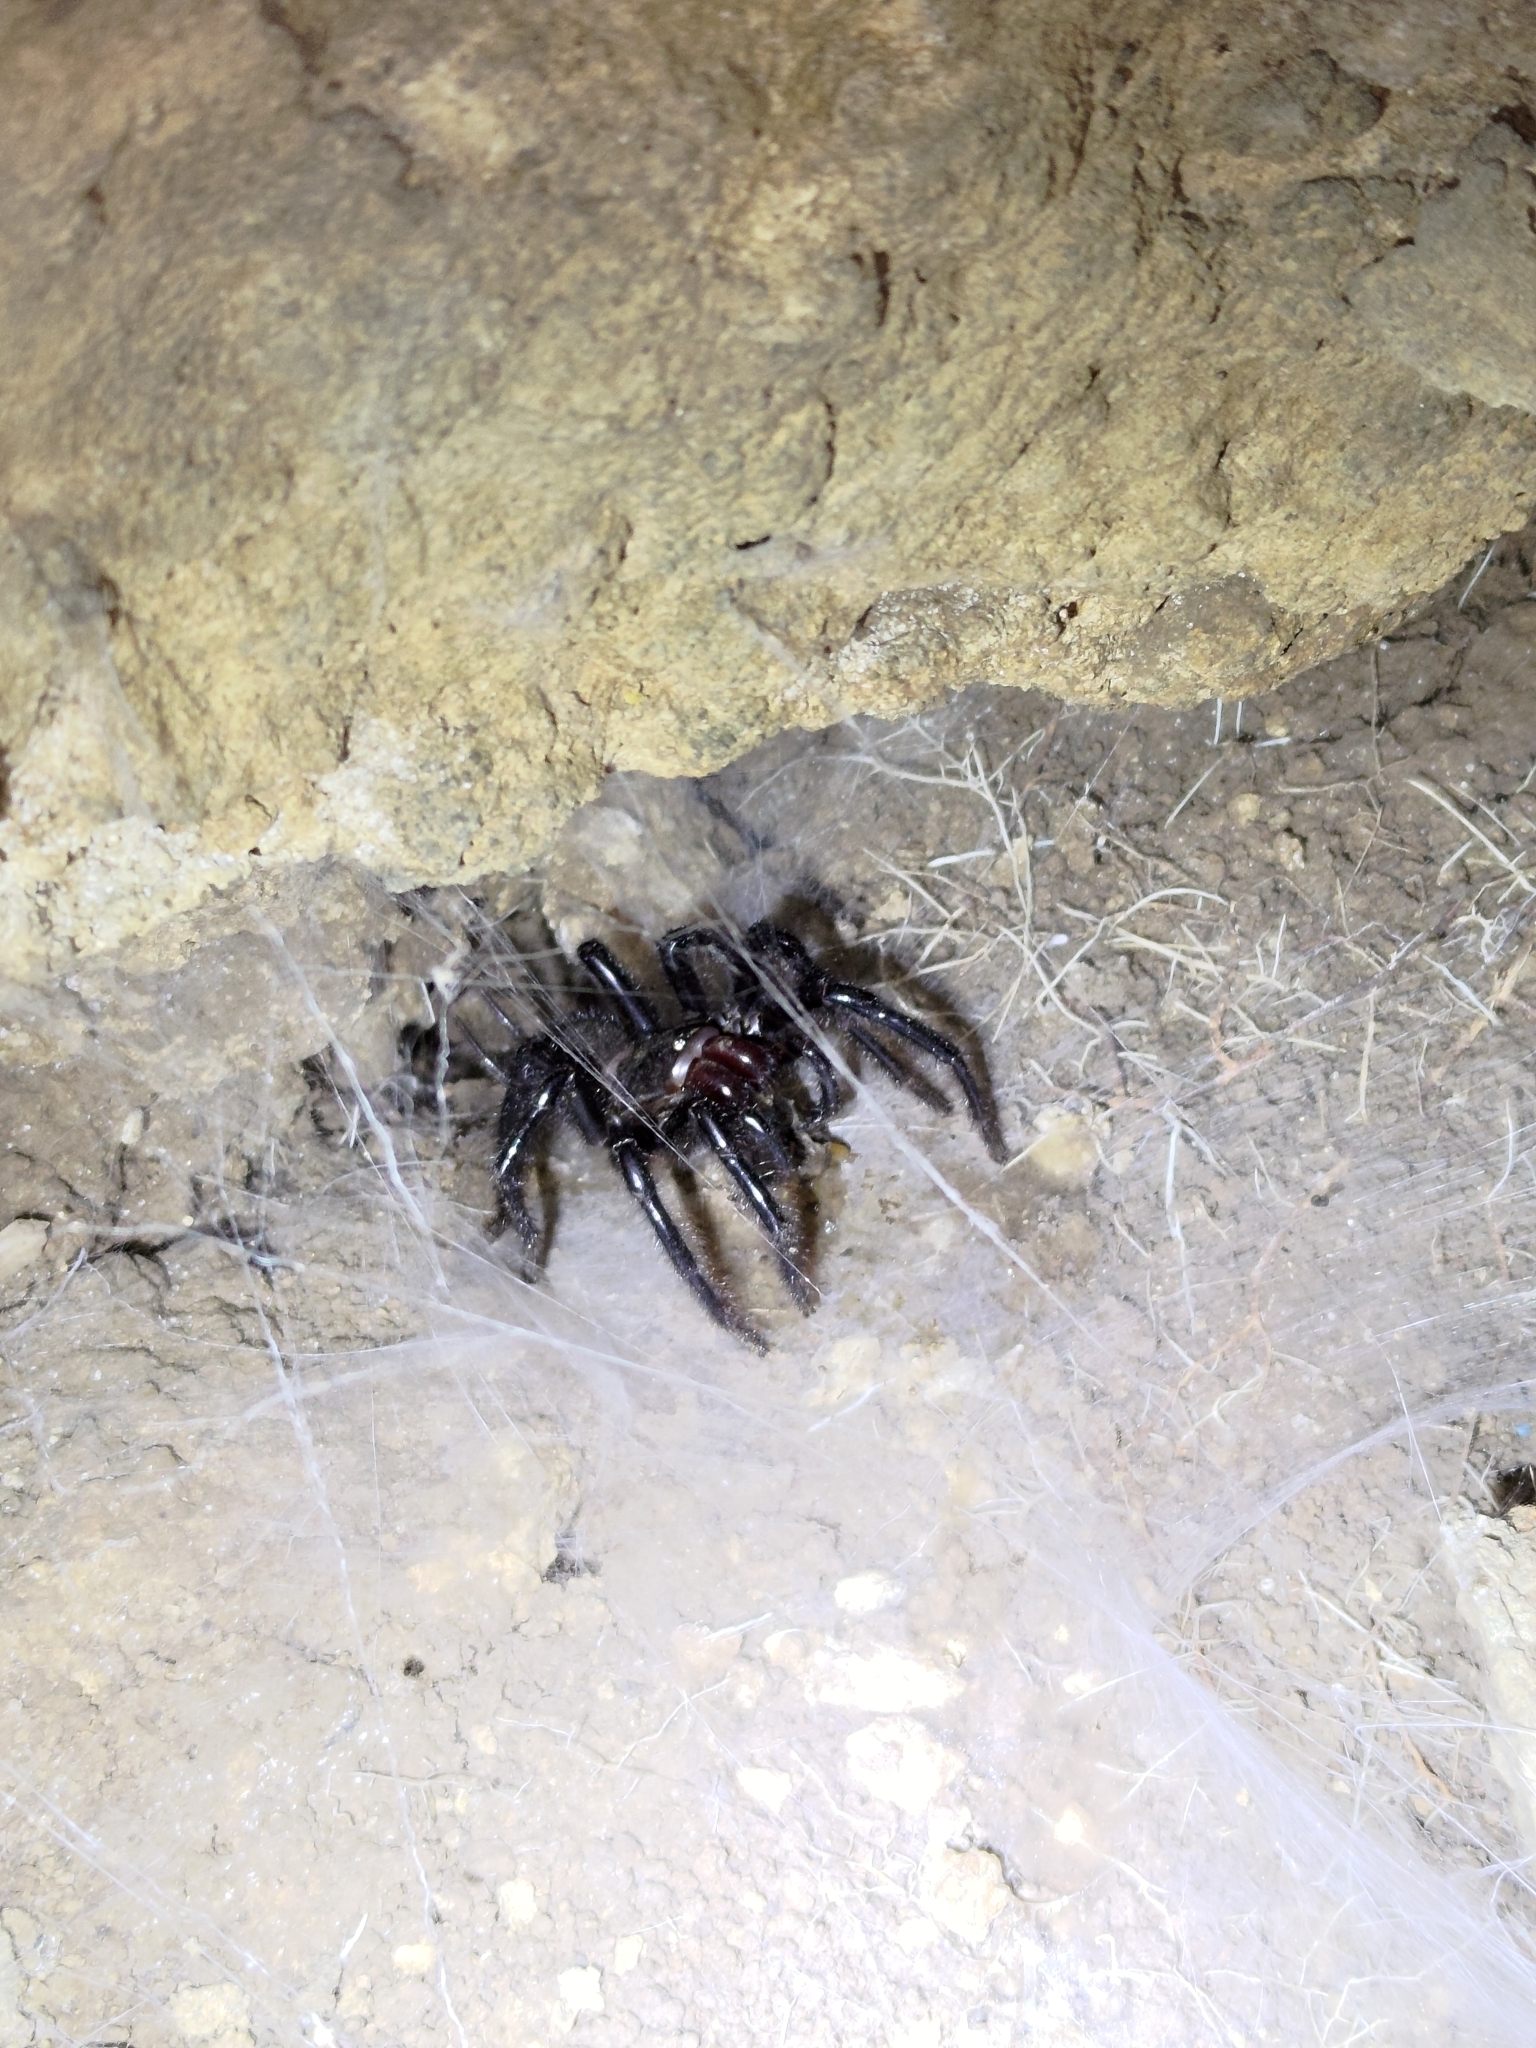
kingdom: Animalia
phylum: Arthropoda
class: Arachnida
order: Araneae
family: Macrothelidae
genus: Macrothele
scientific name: Macrothele hungae
